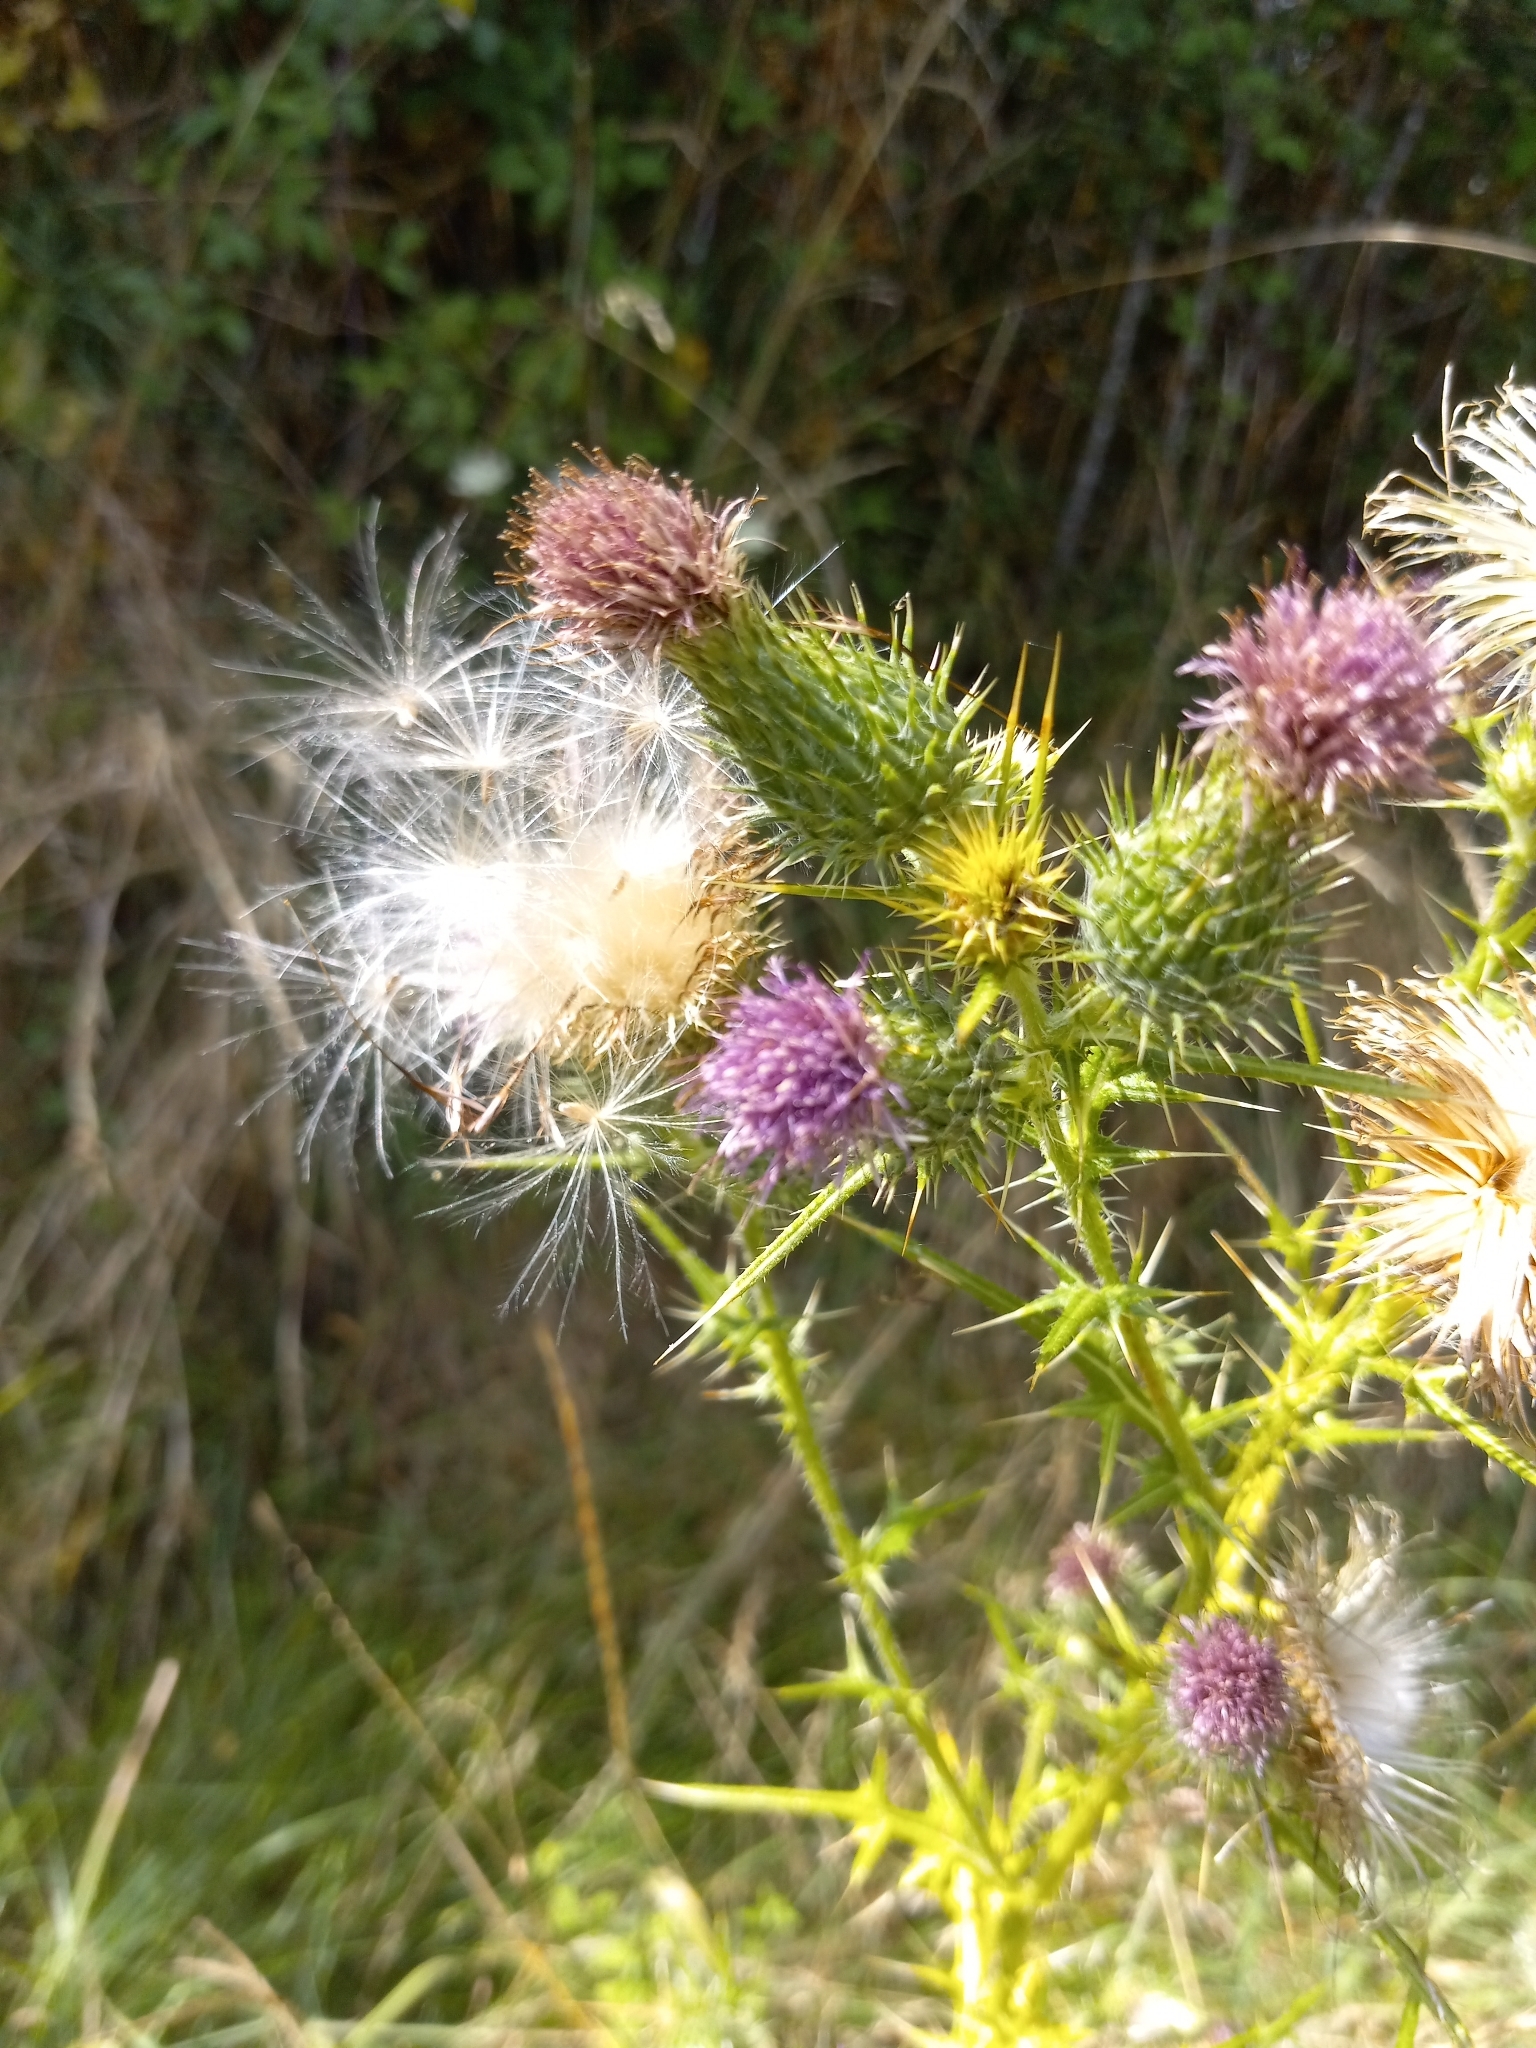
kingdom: Plantae
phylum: Tracheophyta
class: Magnoliopsida
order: Asterales
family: Asteraceae
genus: Cirsium
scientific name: Cirsium vulgare
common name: Bull thistle
